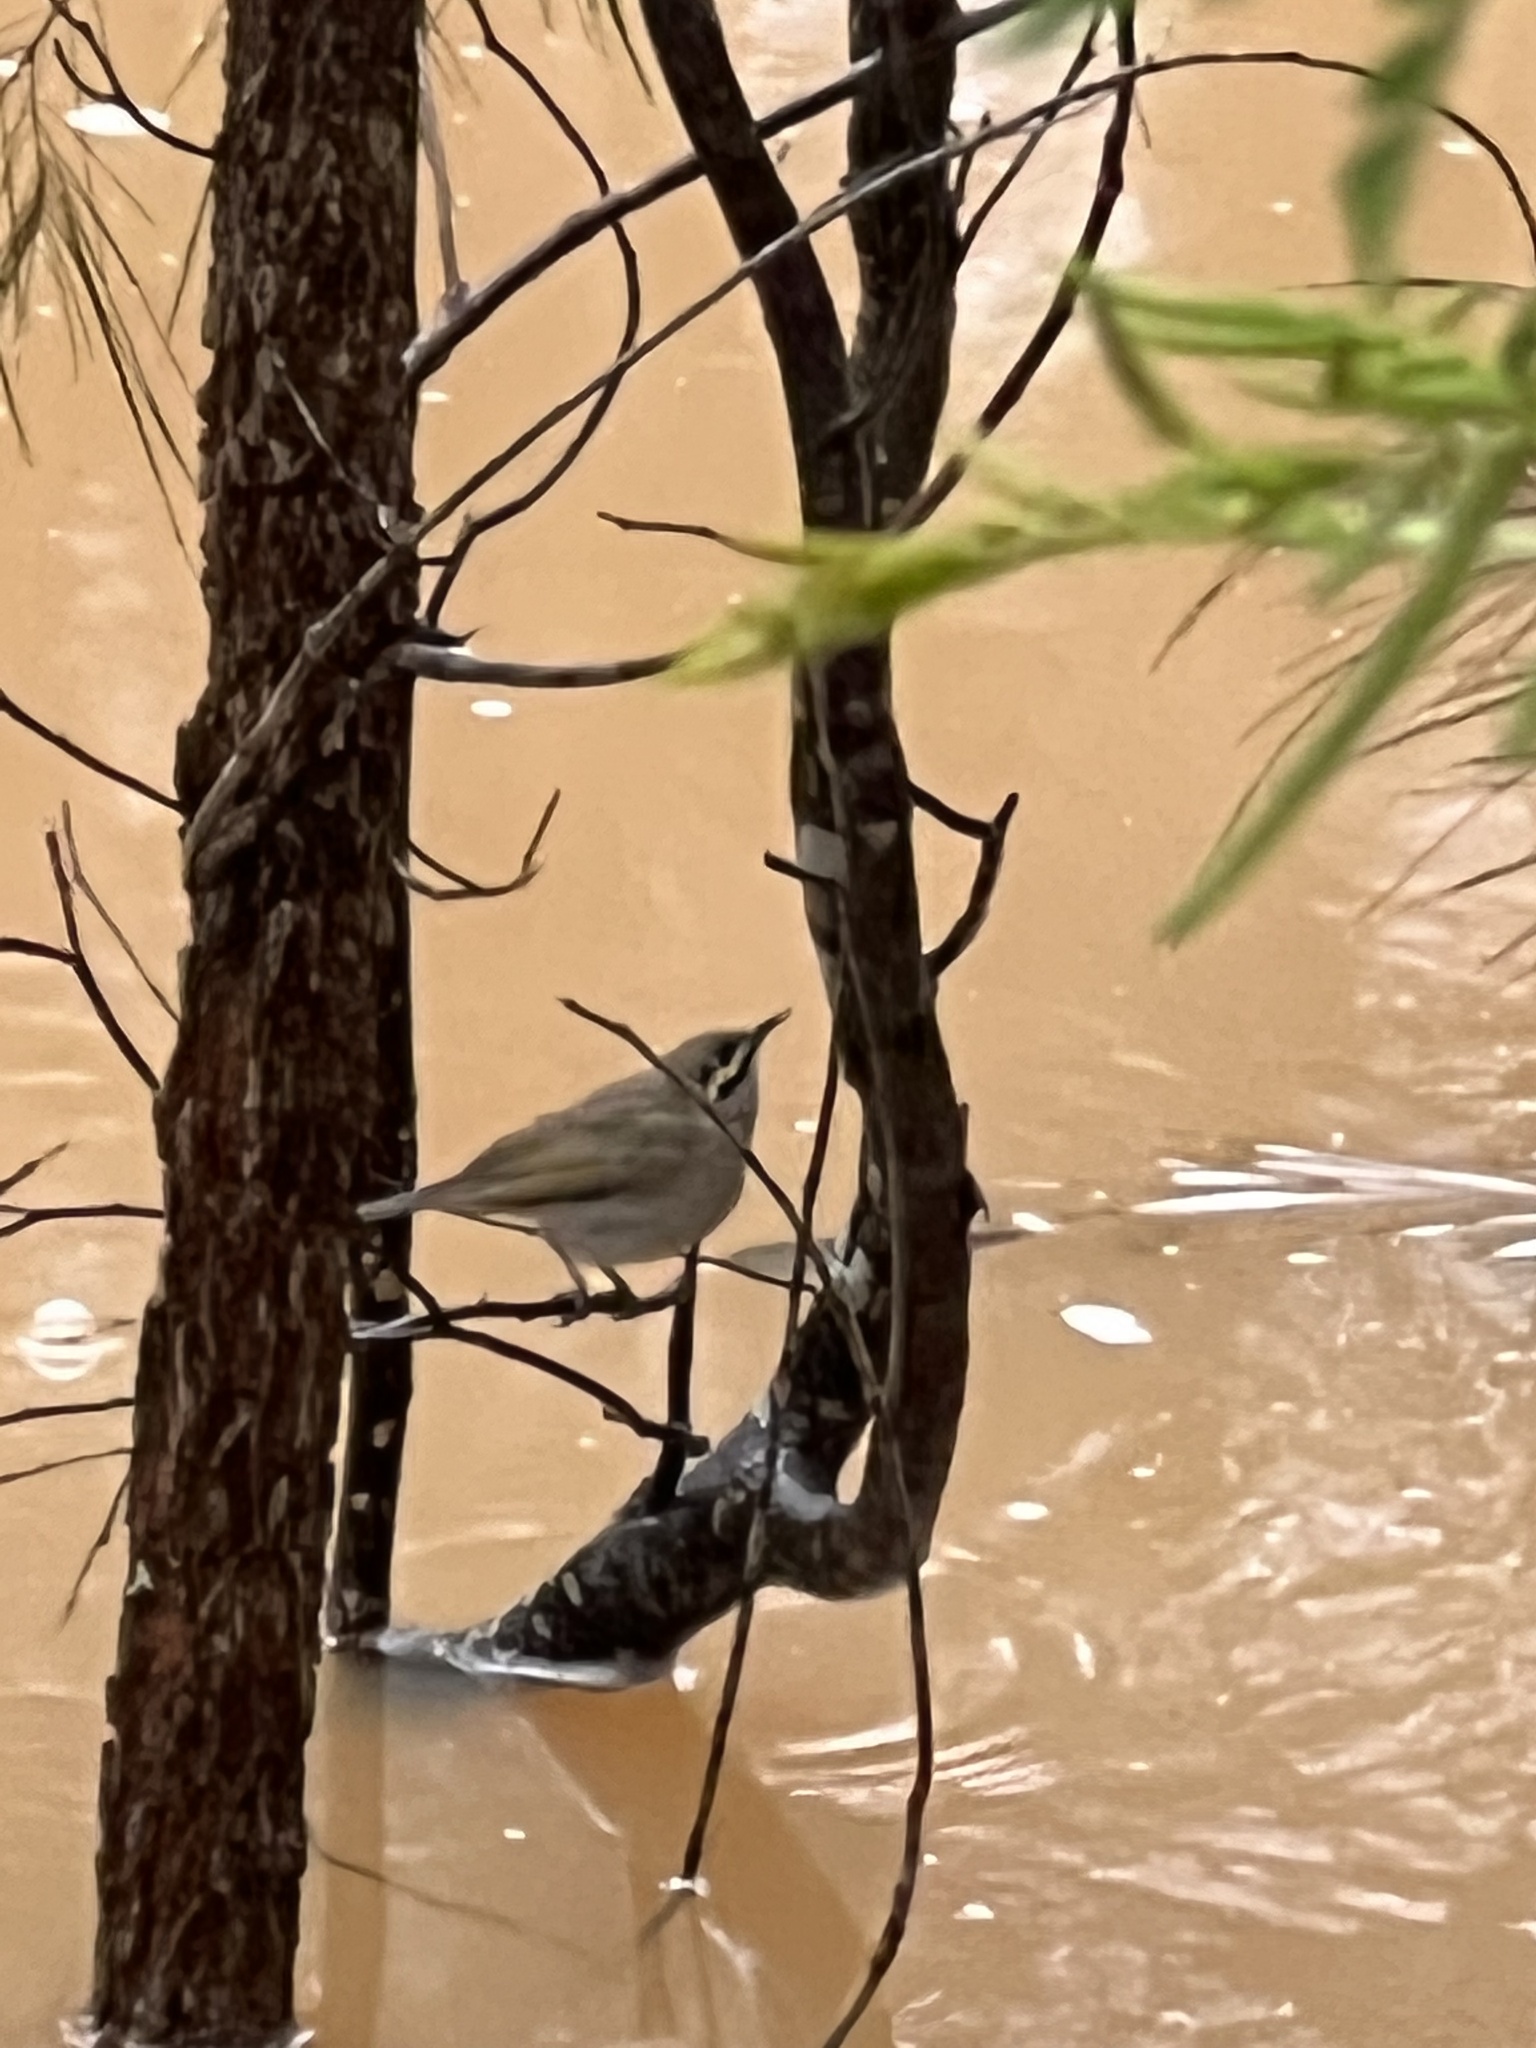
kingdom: Animalia
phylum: Chordata
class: Aves
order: Passeriformes
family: Meliphagidae
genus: Caligavis
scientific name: Caligavis chrysops
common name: Yellow-faced honeyeater
